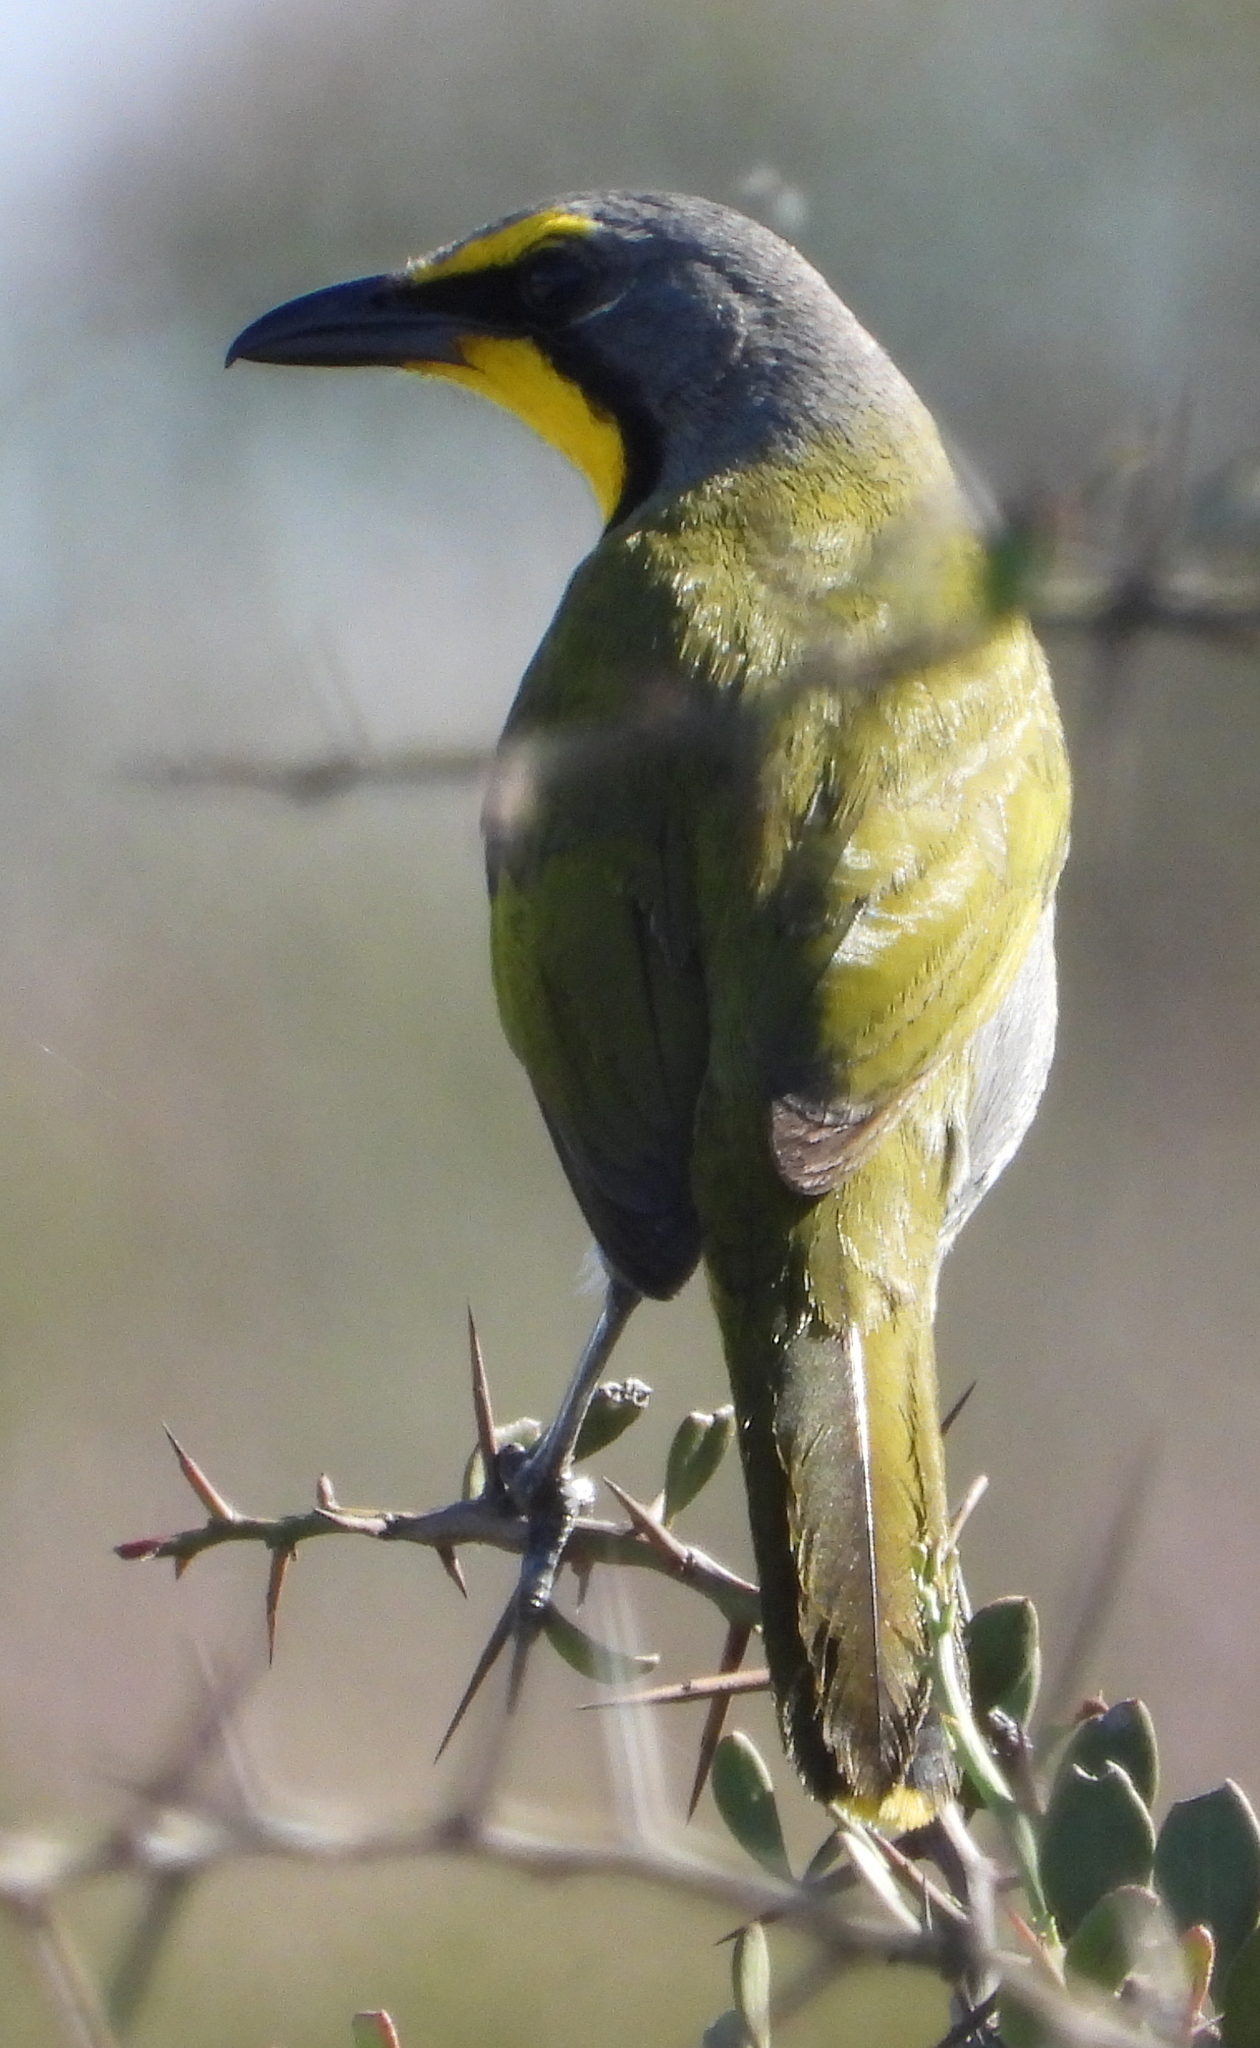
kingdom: Animalia
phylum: Chordata
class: Aves
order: Passeriformes
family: Malaconotidae
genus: Telophorus
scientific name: Telophorus zeylonus
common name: Bokmakierie
